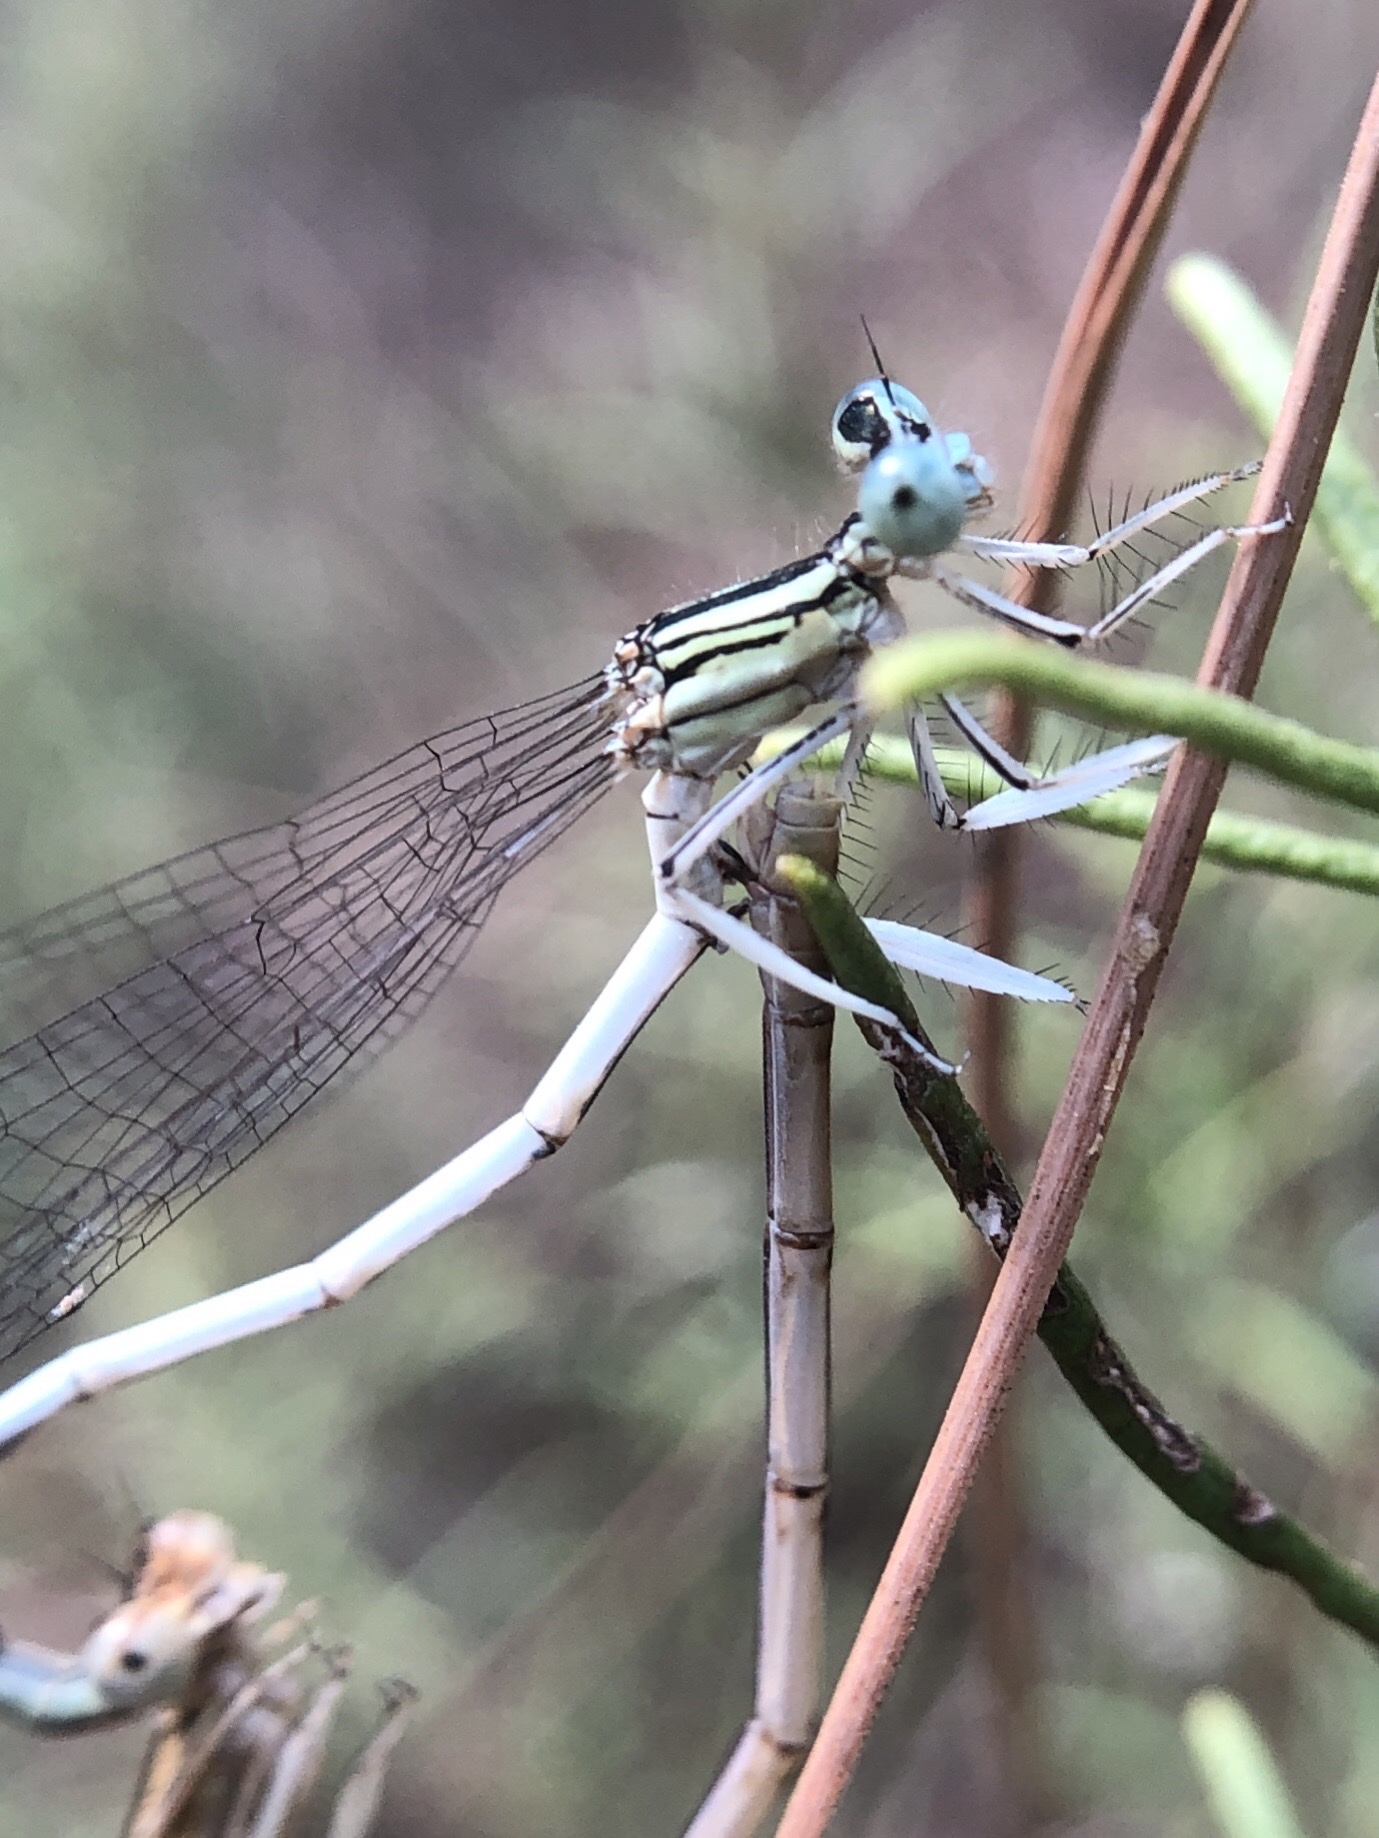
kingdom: Animalia
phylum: Arthropoda
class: Insecta
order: Odonata
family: Platycnemididae
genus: Platycnemis
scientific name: Platycnemis latipes
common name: White featherleg
